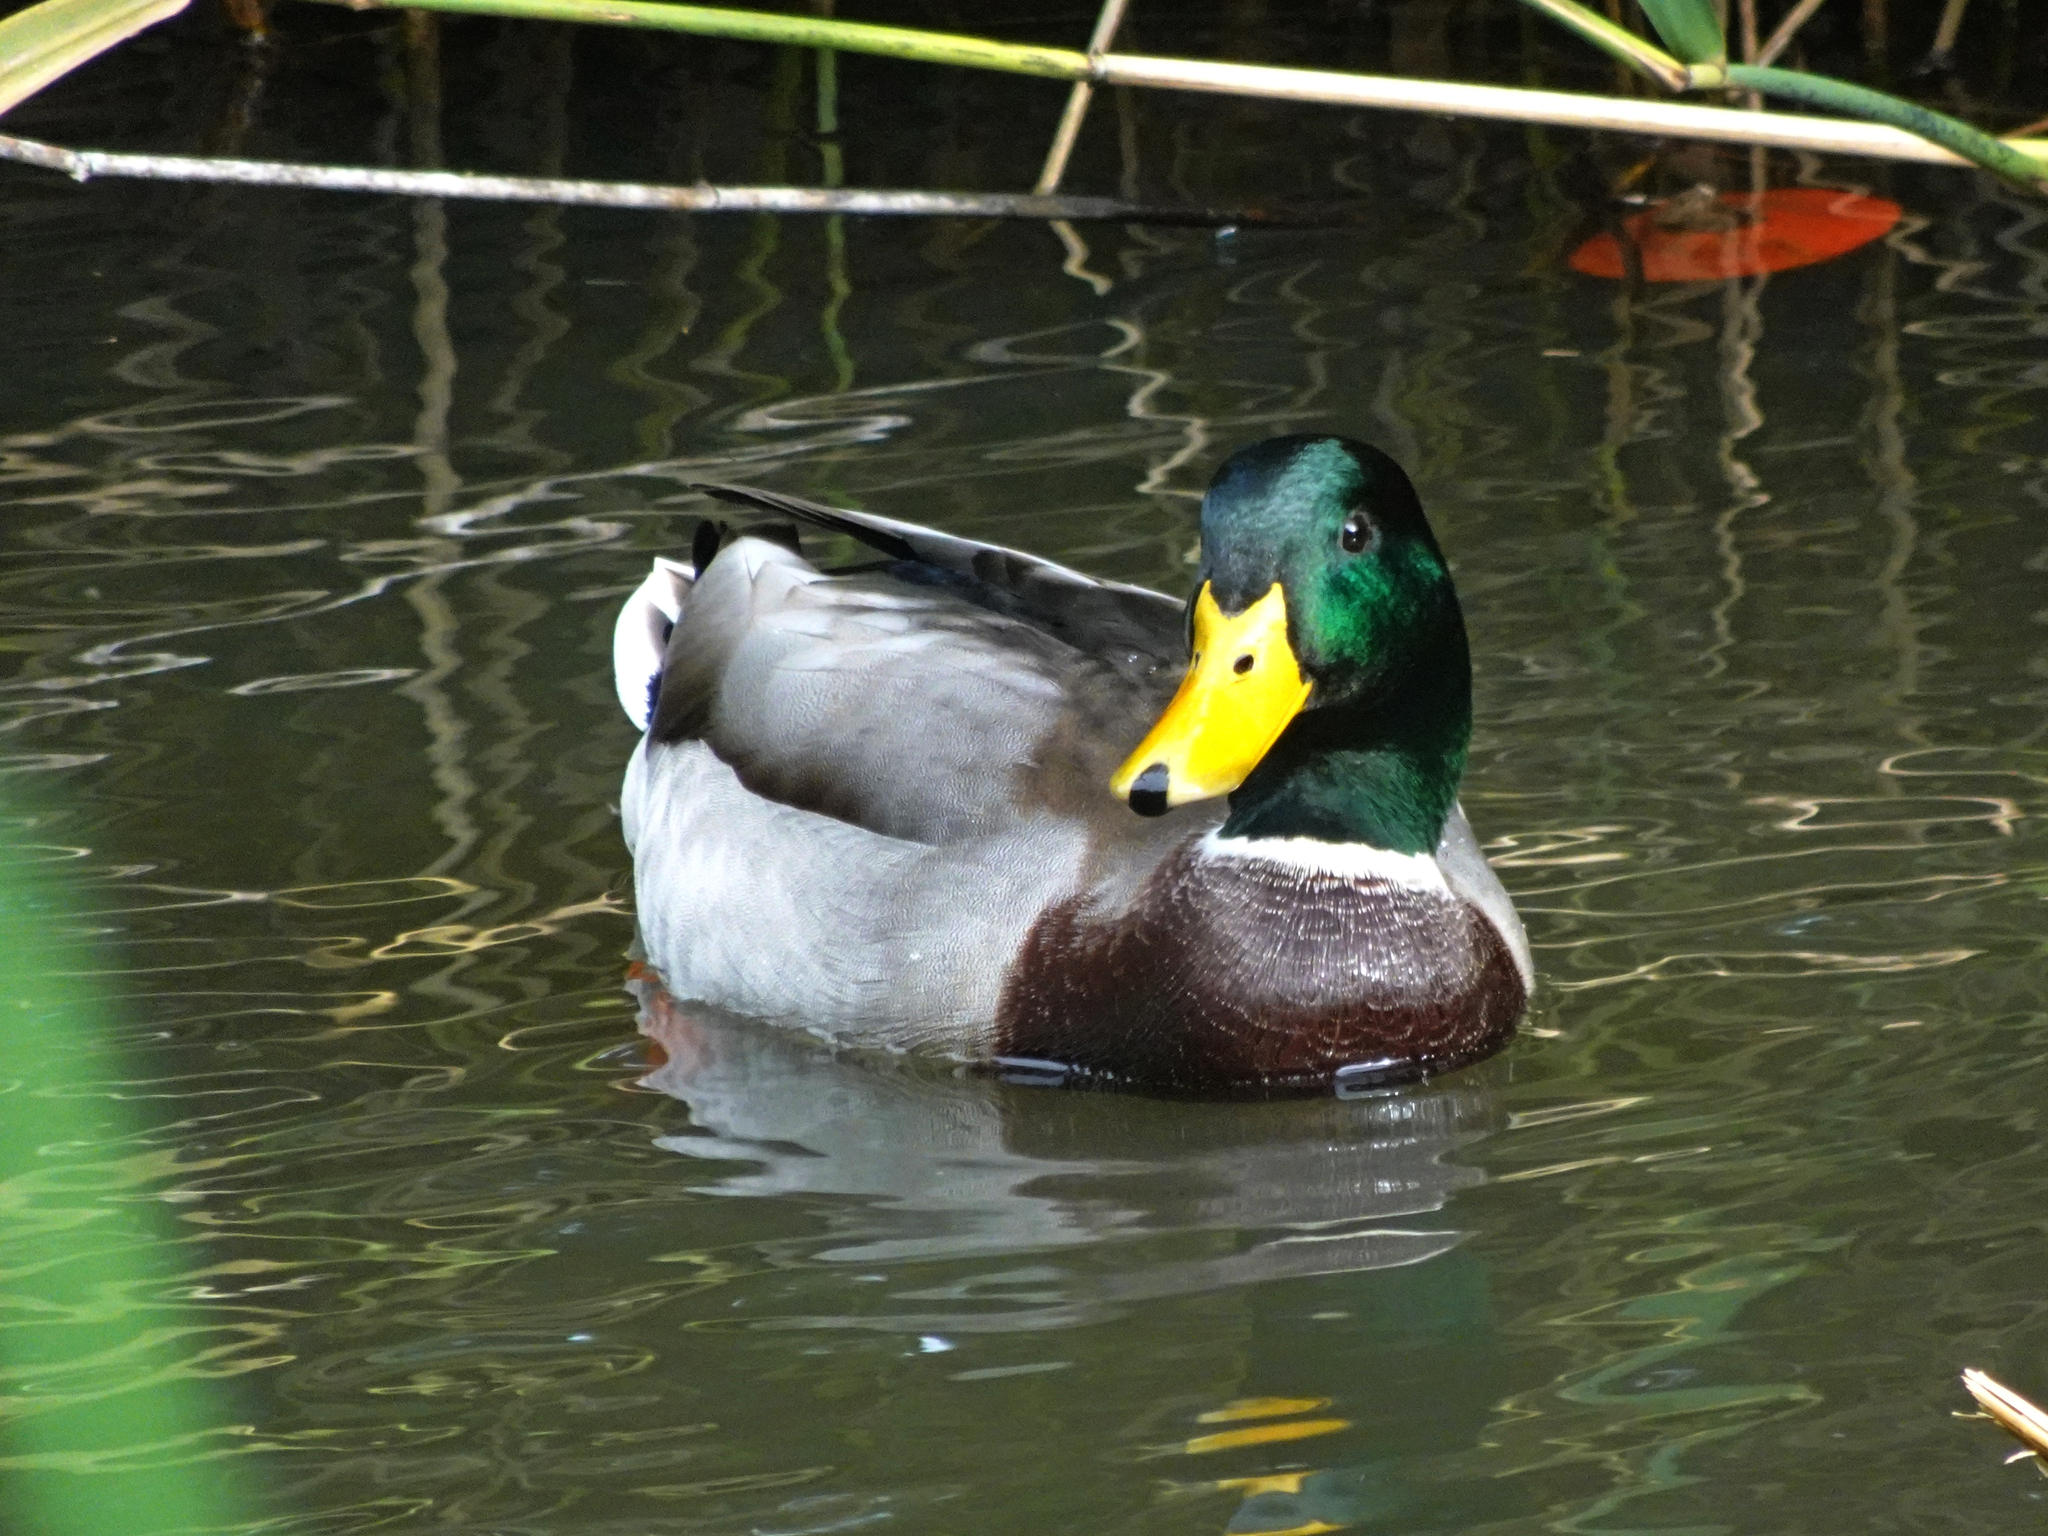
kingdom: Animalia
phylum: Chordata
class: Aves
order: Anseriformes
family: Anatidae
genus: Anas
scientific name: Anas platyrhynchos
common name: Mallard
